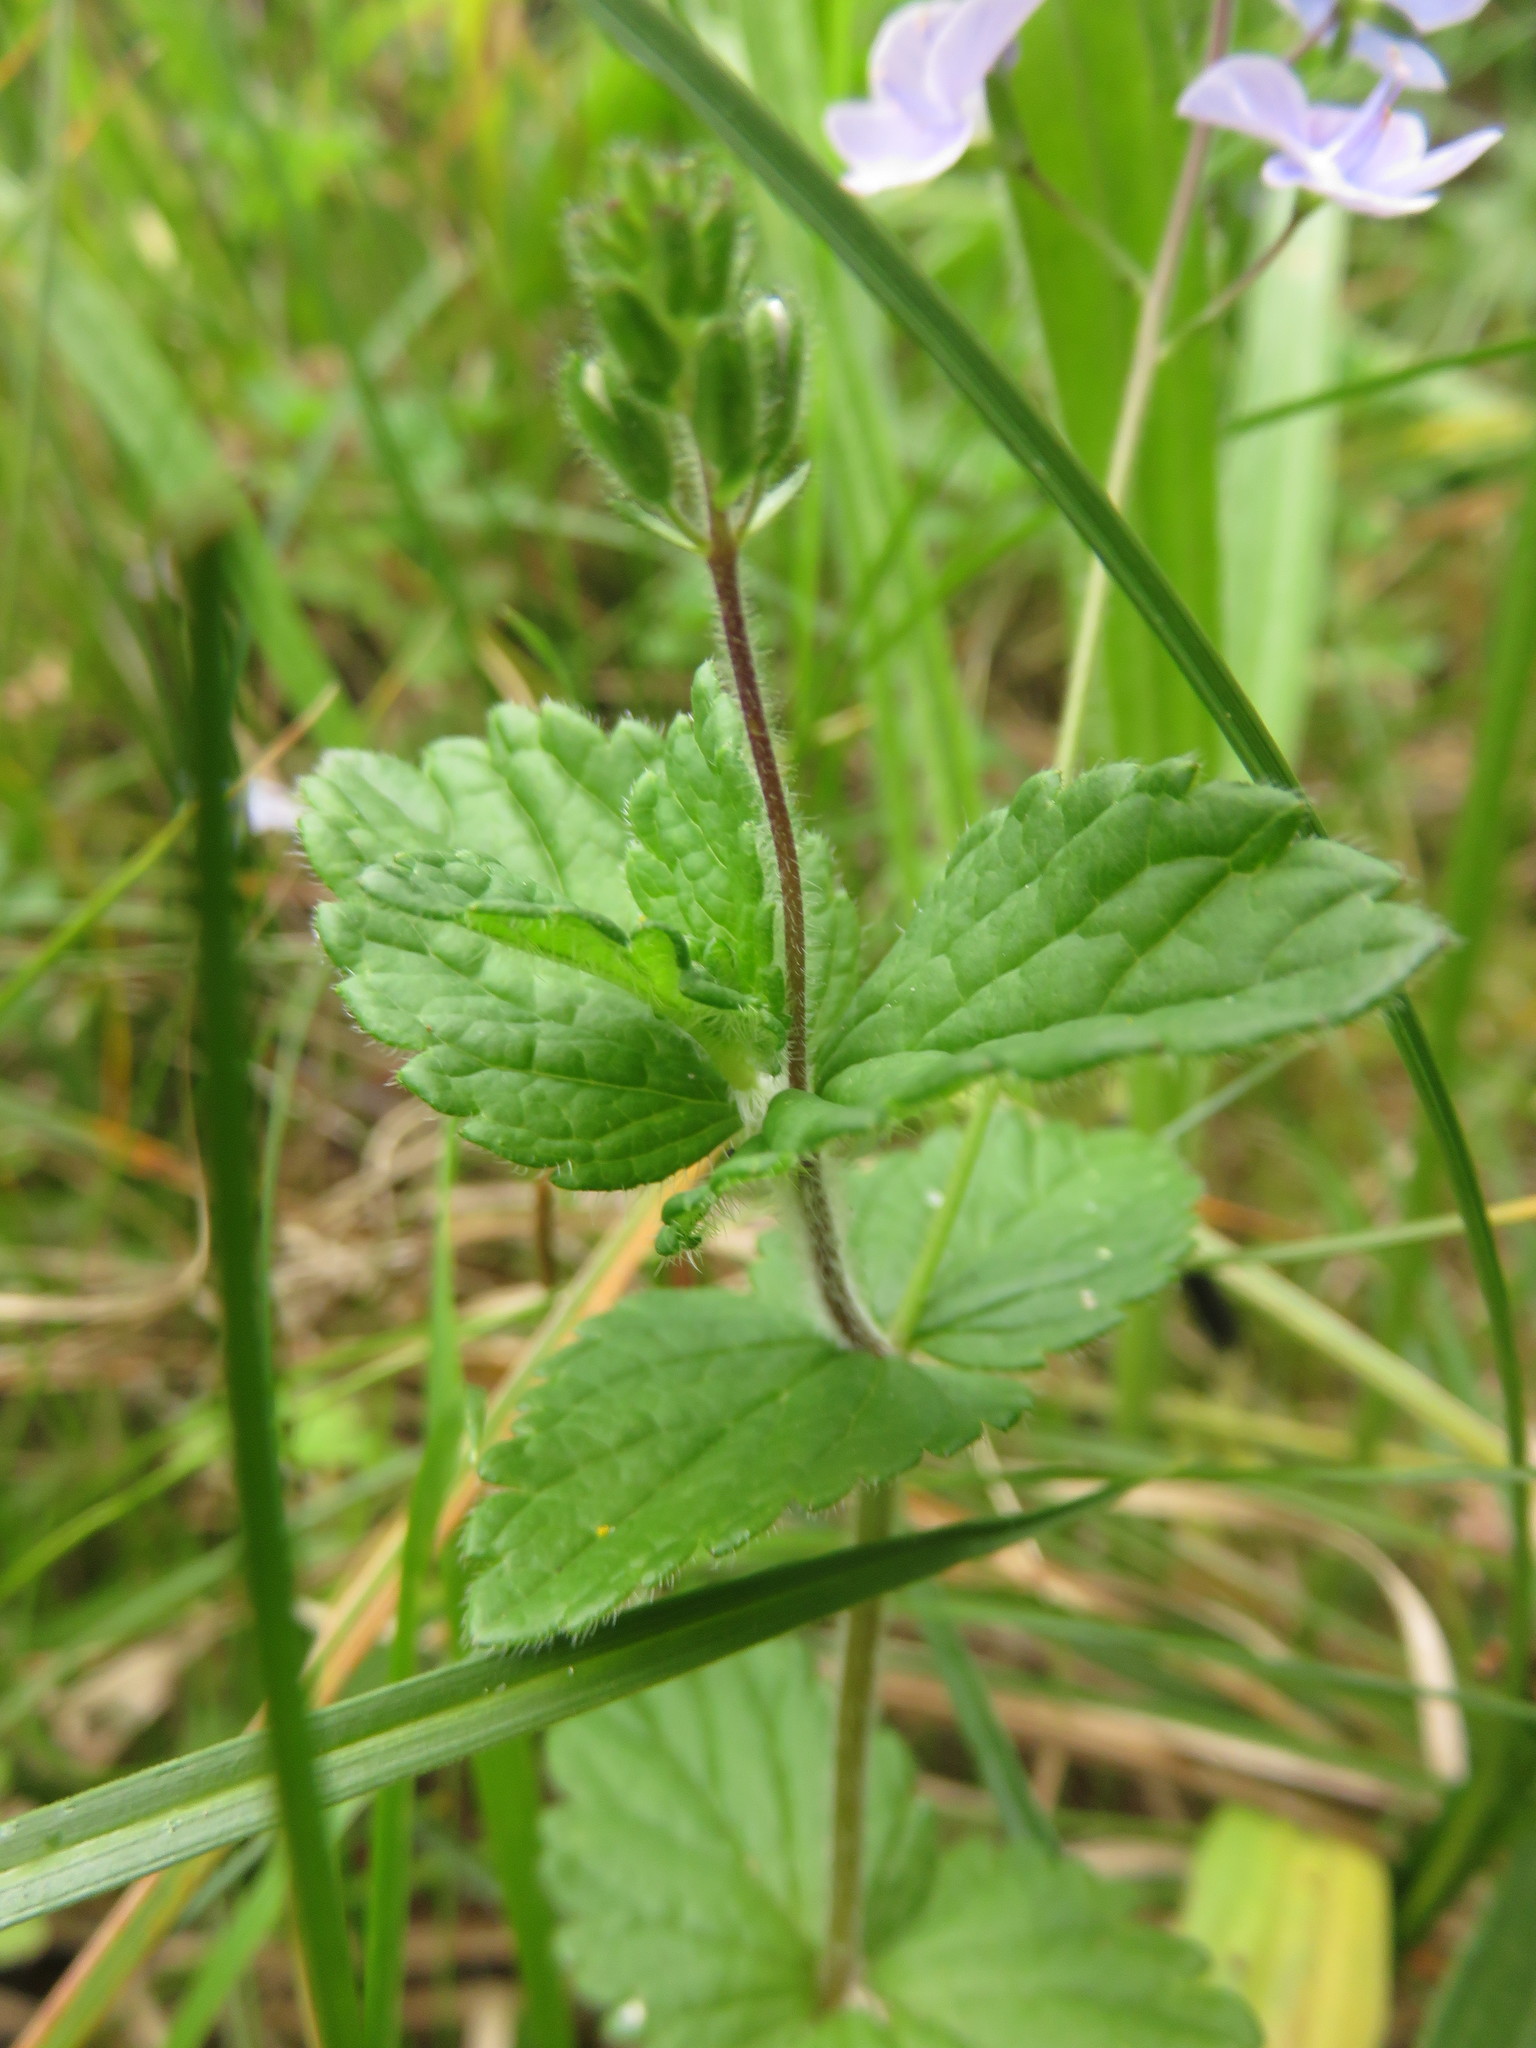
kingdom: Plantae
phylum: Tracheophyta
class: Magnoliopsida
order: Lamiales
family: Plantaginaceae
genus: Veronica
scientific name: Veronica chamaedrys
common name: Germander speedwell
